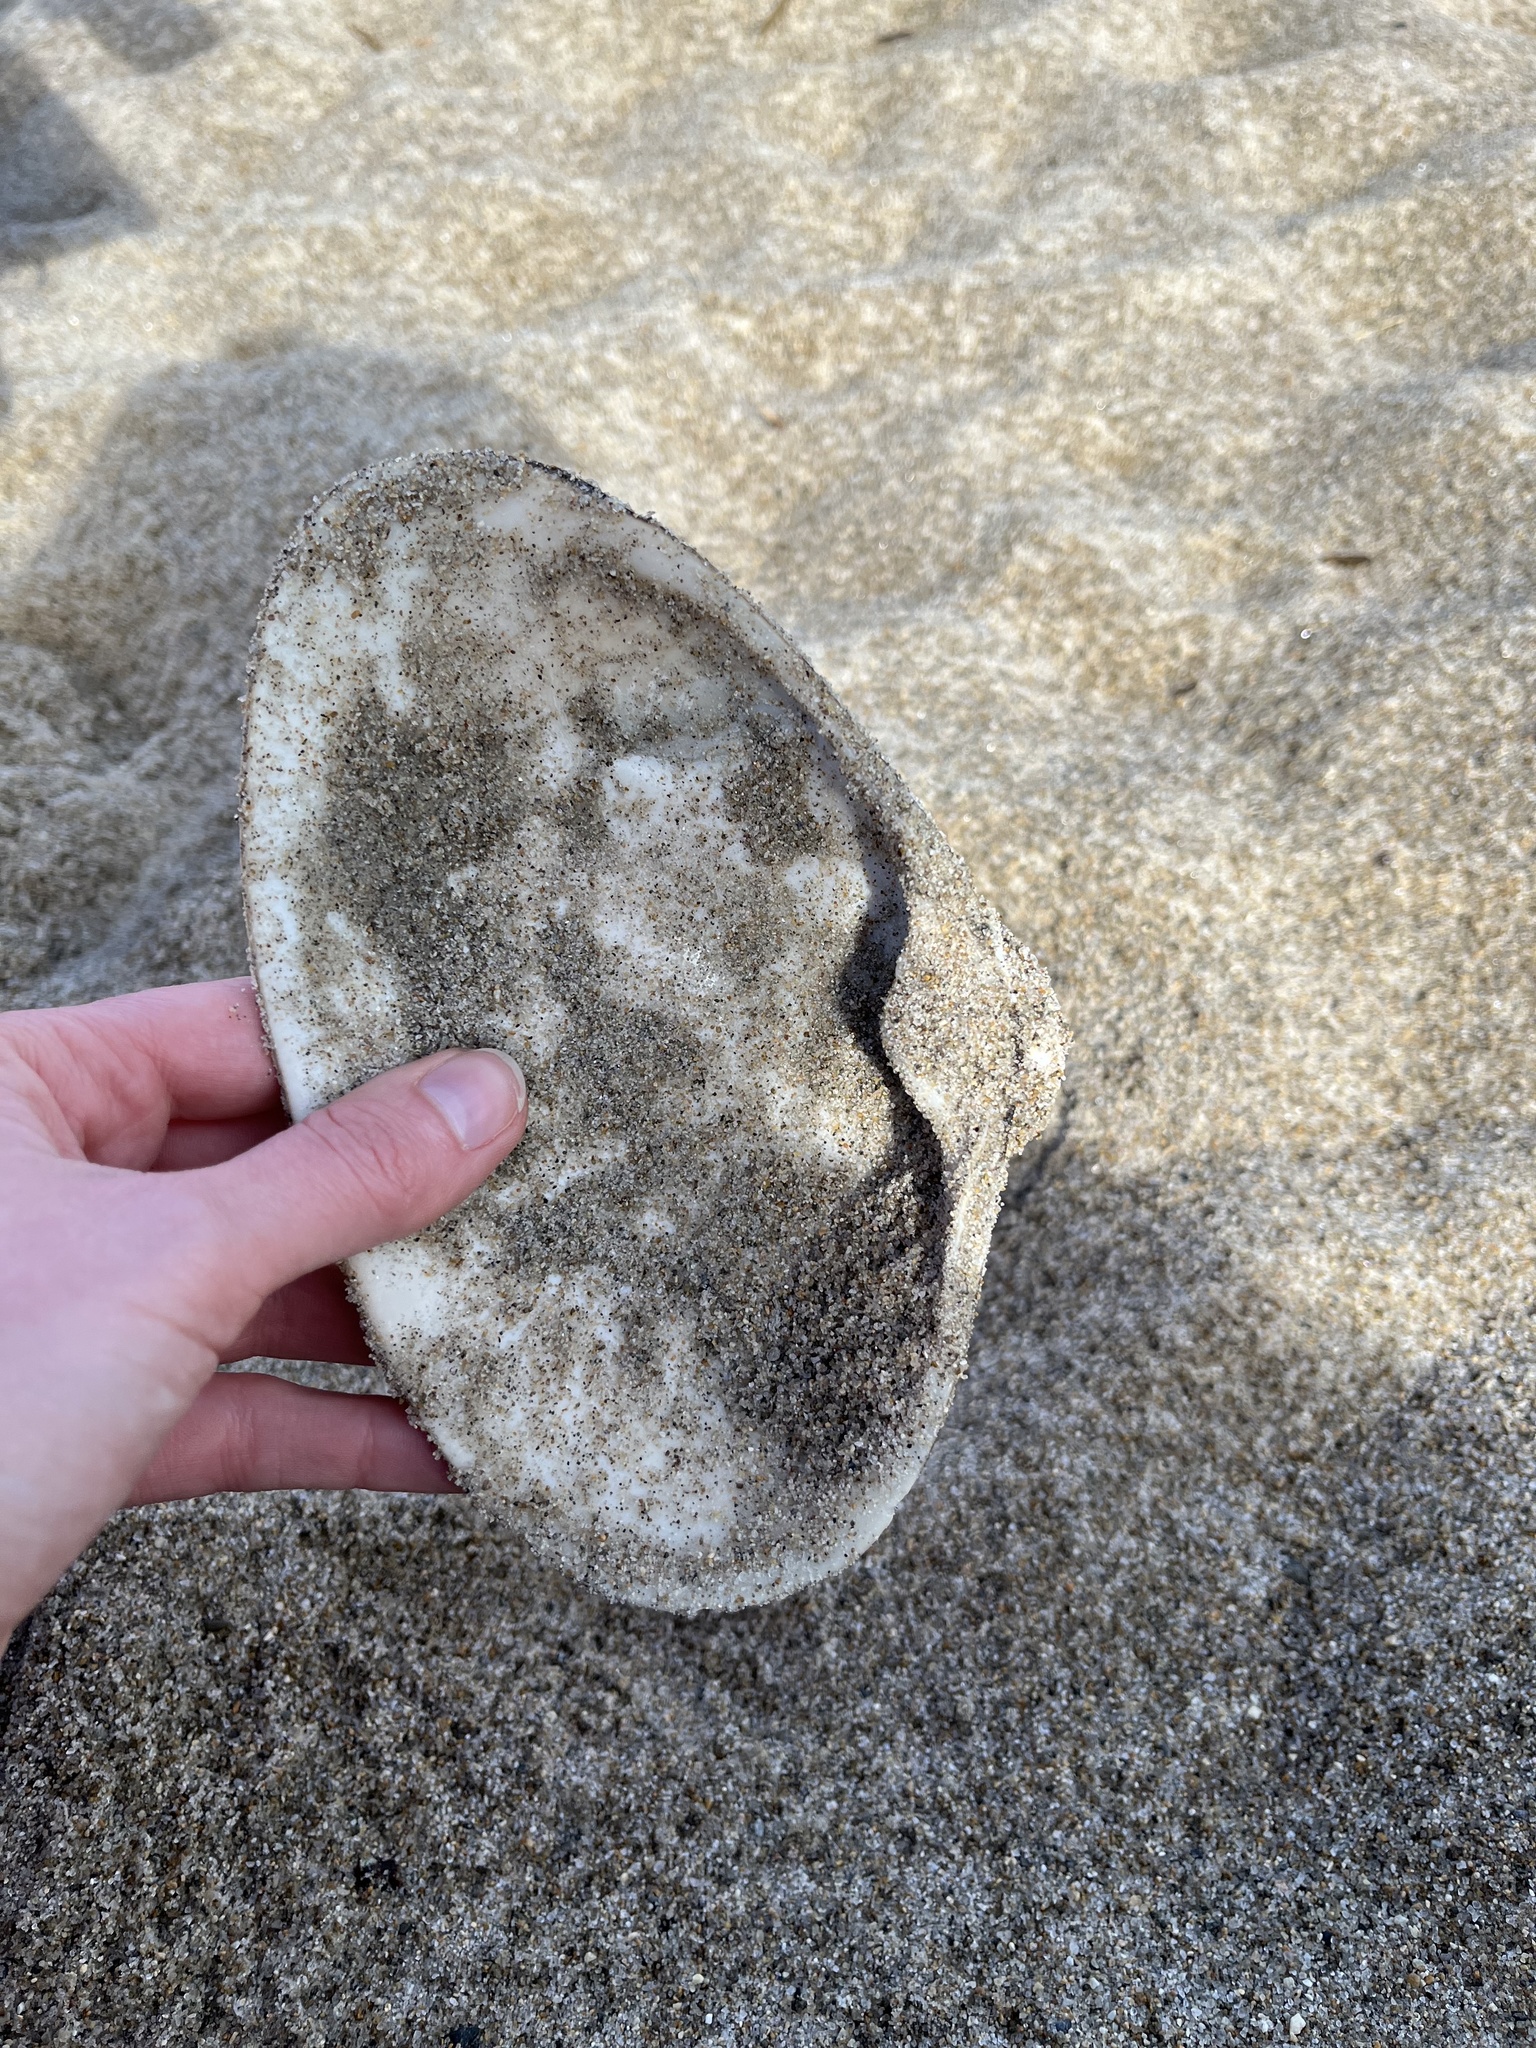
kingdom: Animalia
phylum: Mollusca
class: Bivalvia
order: Venerida
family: Mactridae
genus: Spisula
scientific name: Spisula solidissima
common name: Atlantic surf clam
